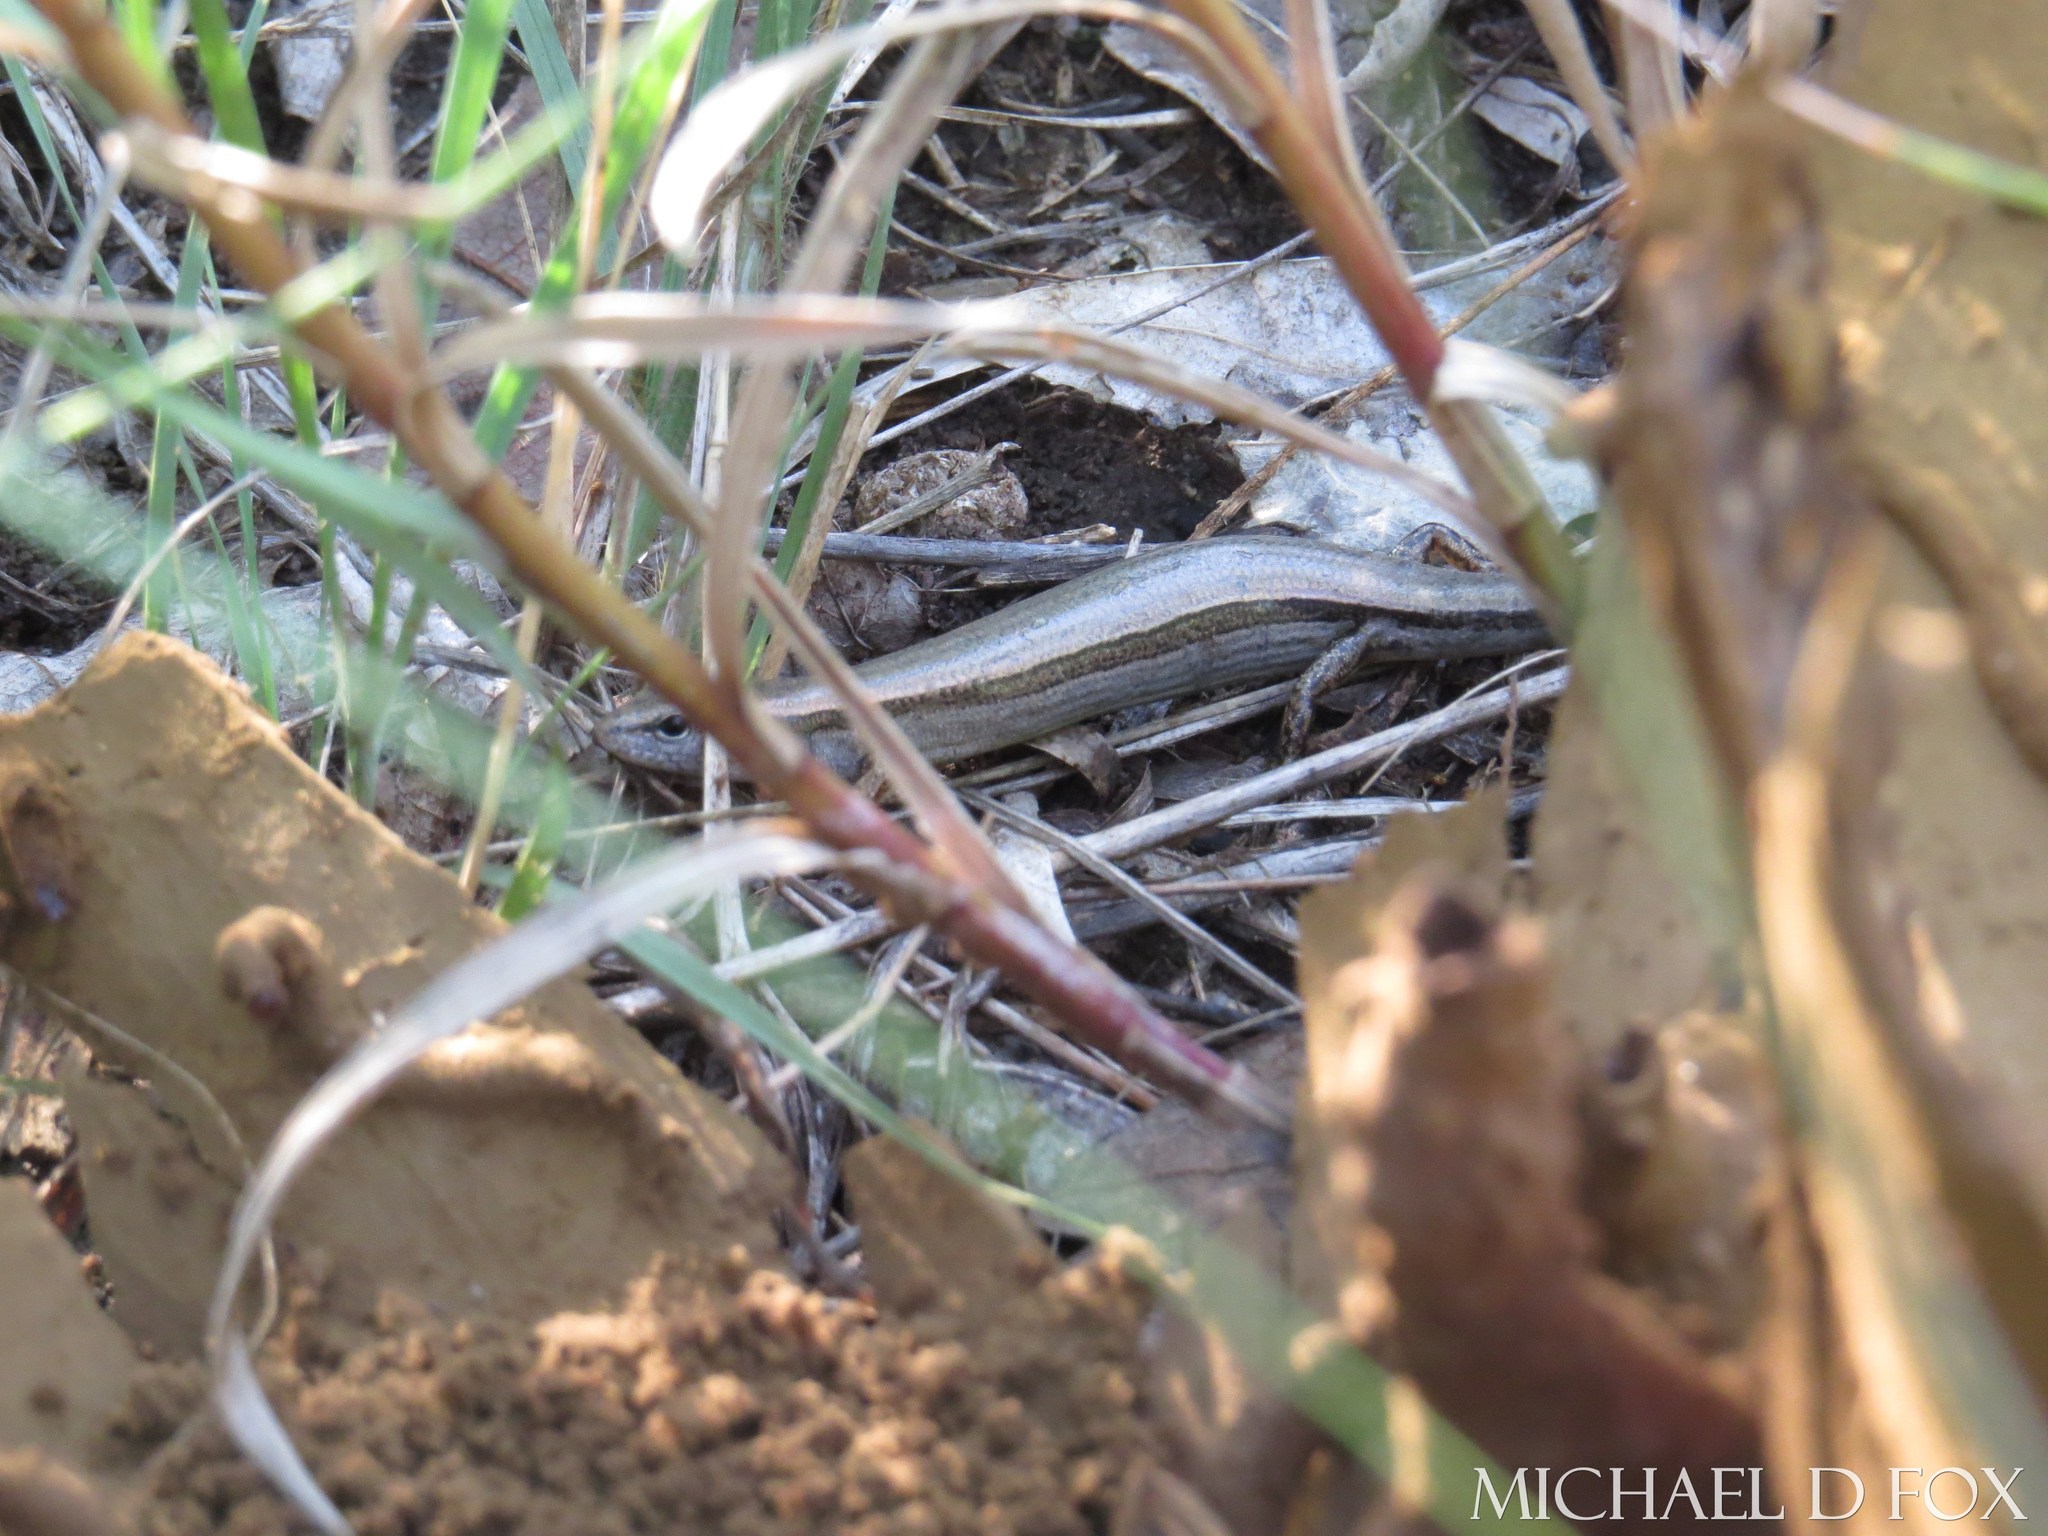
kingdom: Animalia
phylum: Chordata
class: Squamata
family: Scincidae
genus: Scincella
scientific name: Scincella lateralis
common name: Ground skink
